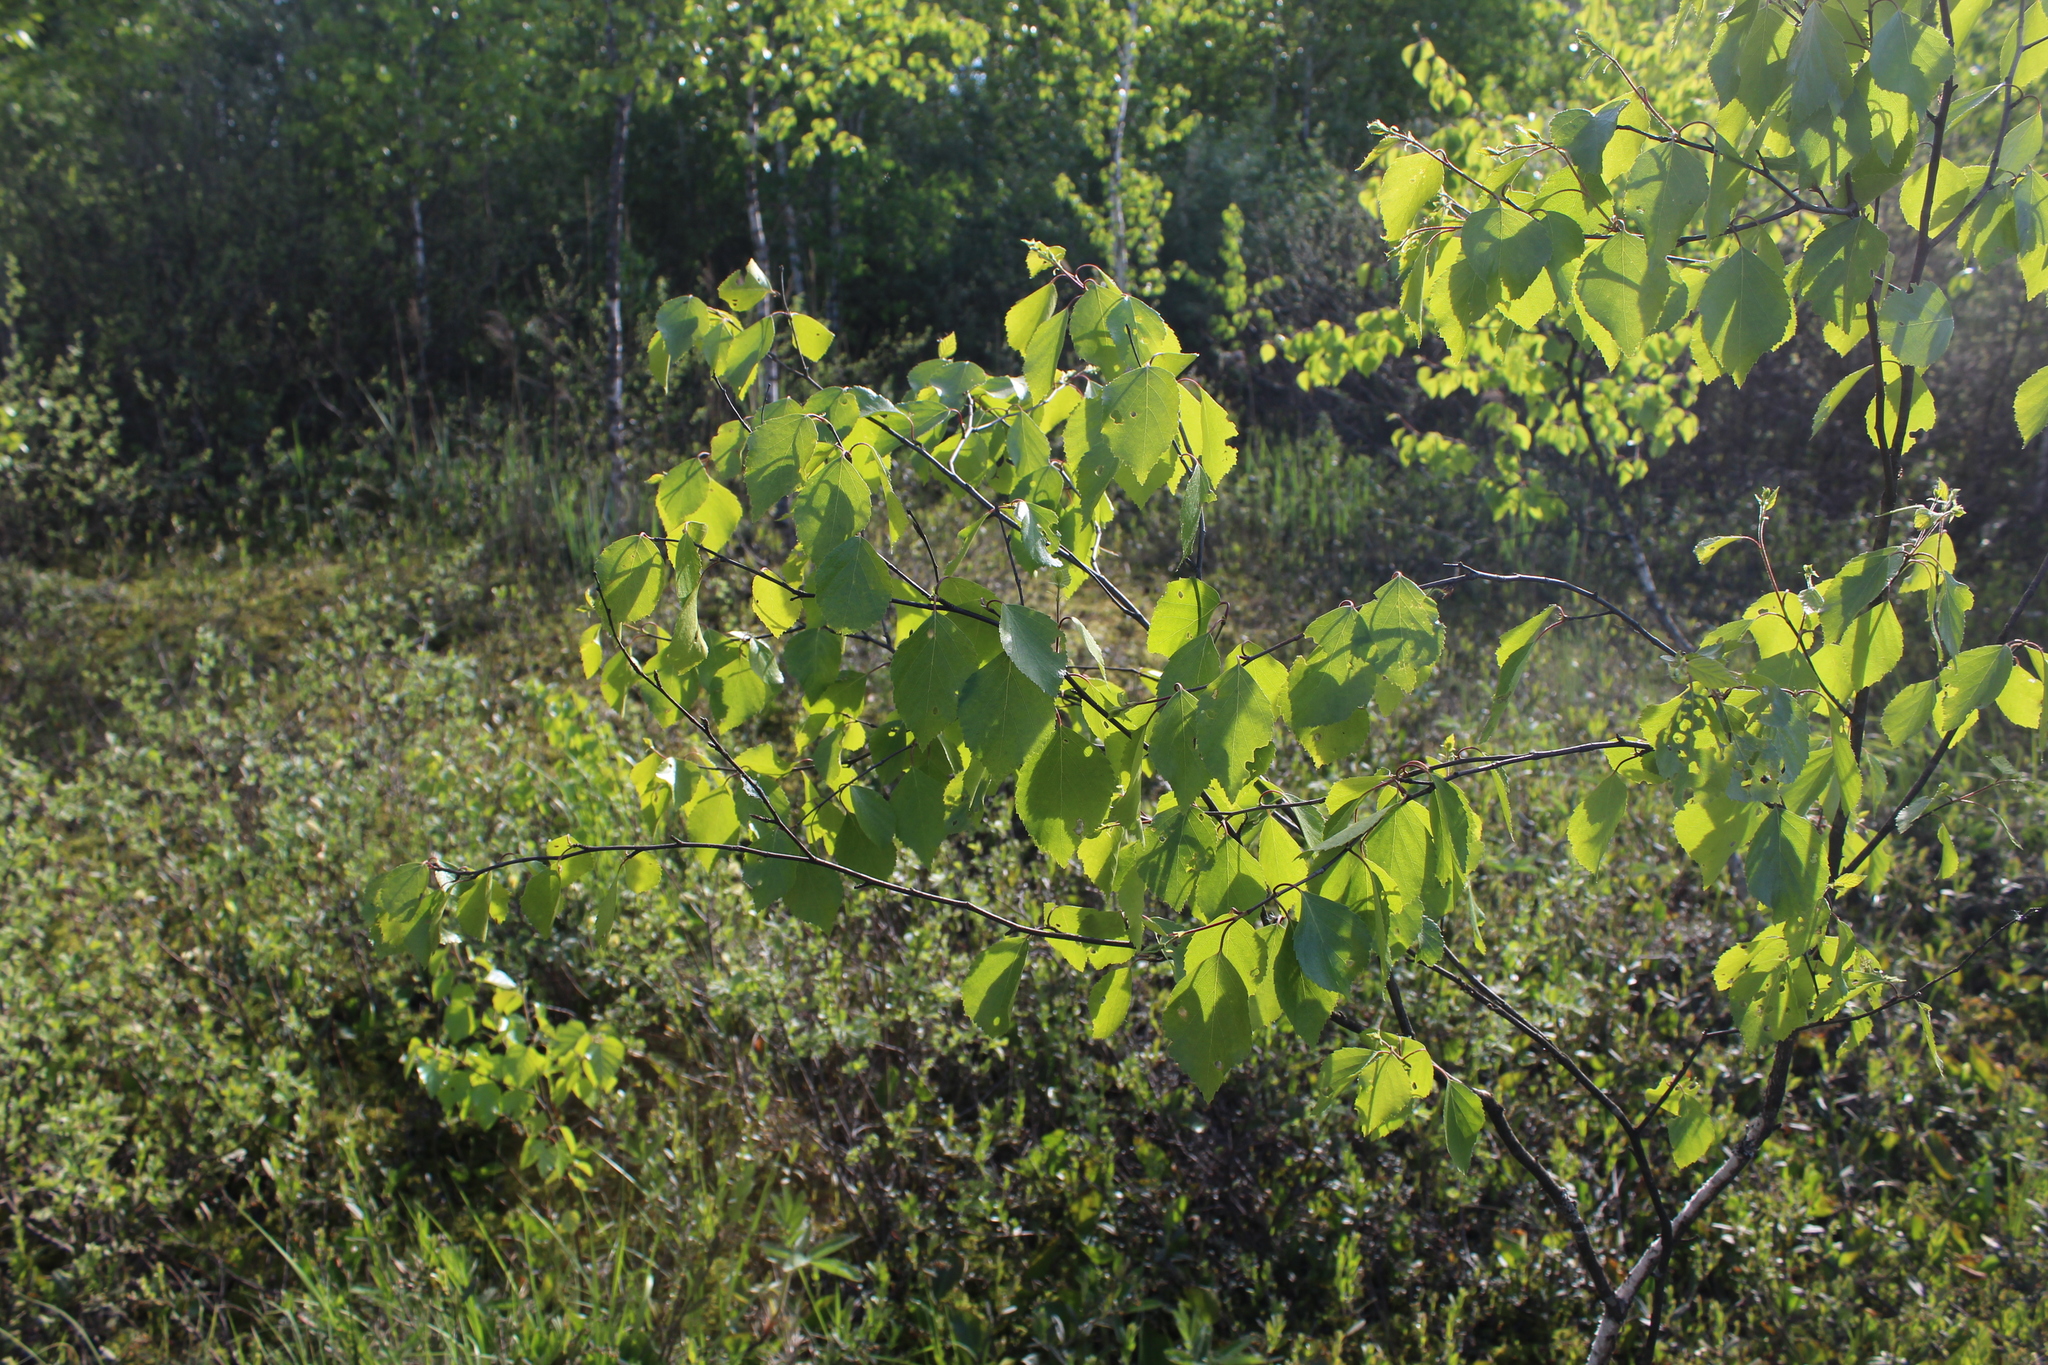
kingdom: Plantae
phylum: Tracheophyta
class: Magnoliopsida
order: Fagales
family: Betulaceae
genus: Betula
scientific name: Betula pendula
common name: Silver birch
